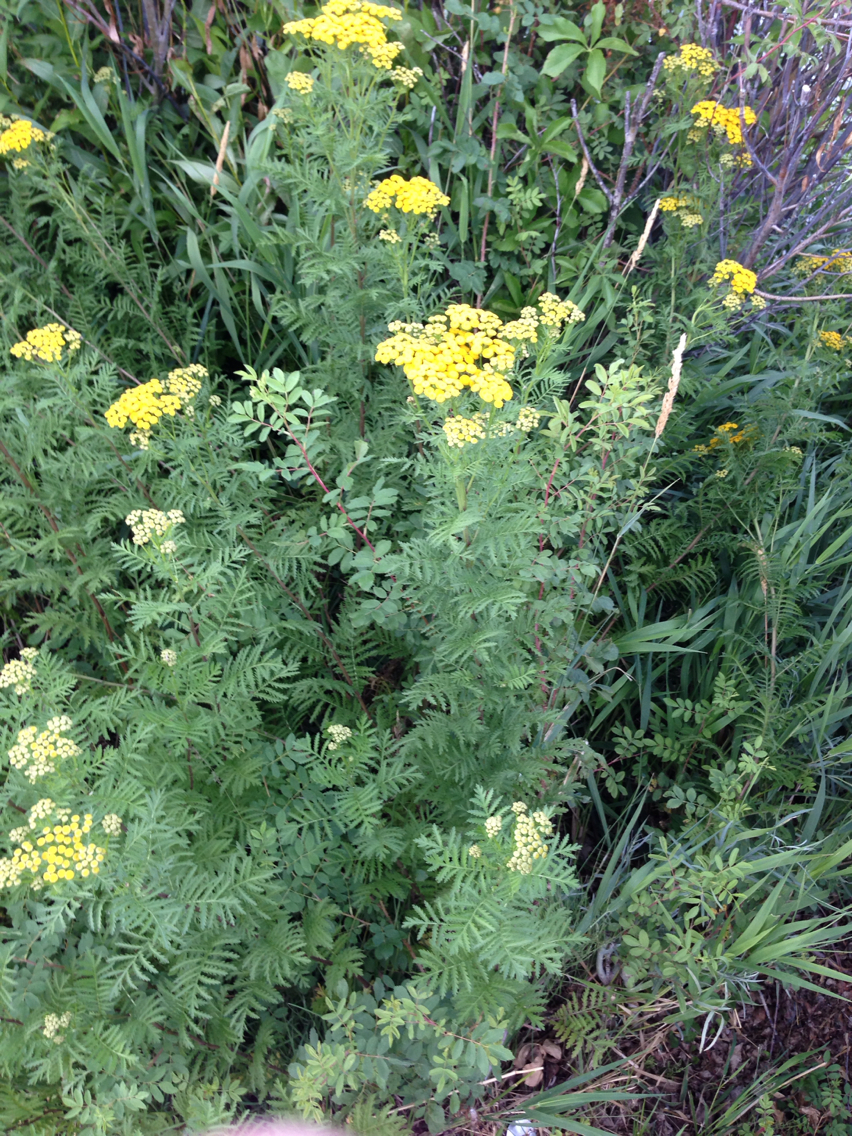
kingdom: Plantae
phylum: Tracheophyta
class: Magnoliopsida
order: Asterales
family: Asteraceae
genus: Tanacetum
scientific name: Tanacetum vulgare
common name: Common tansy
